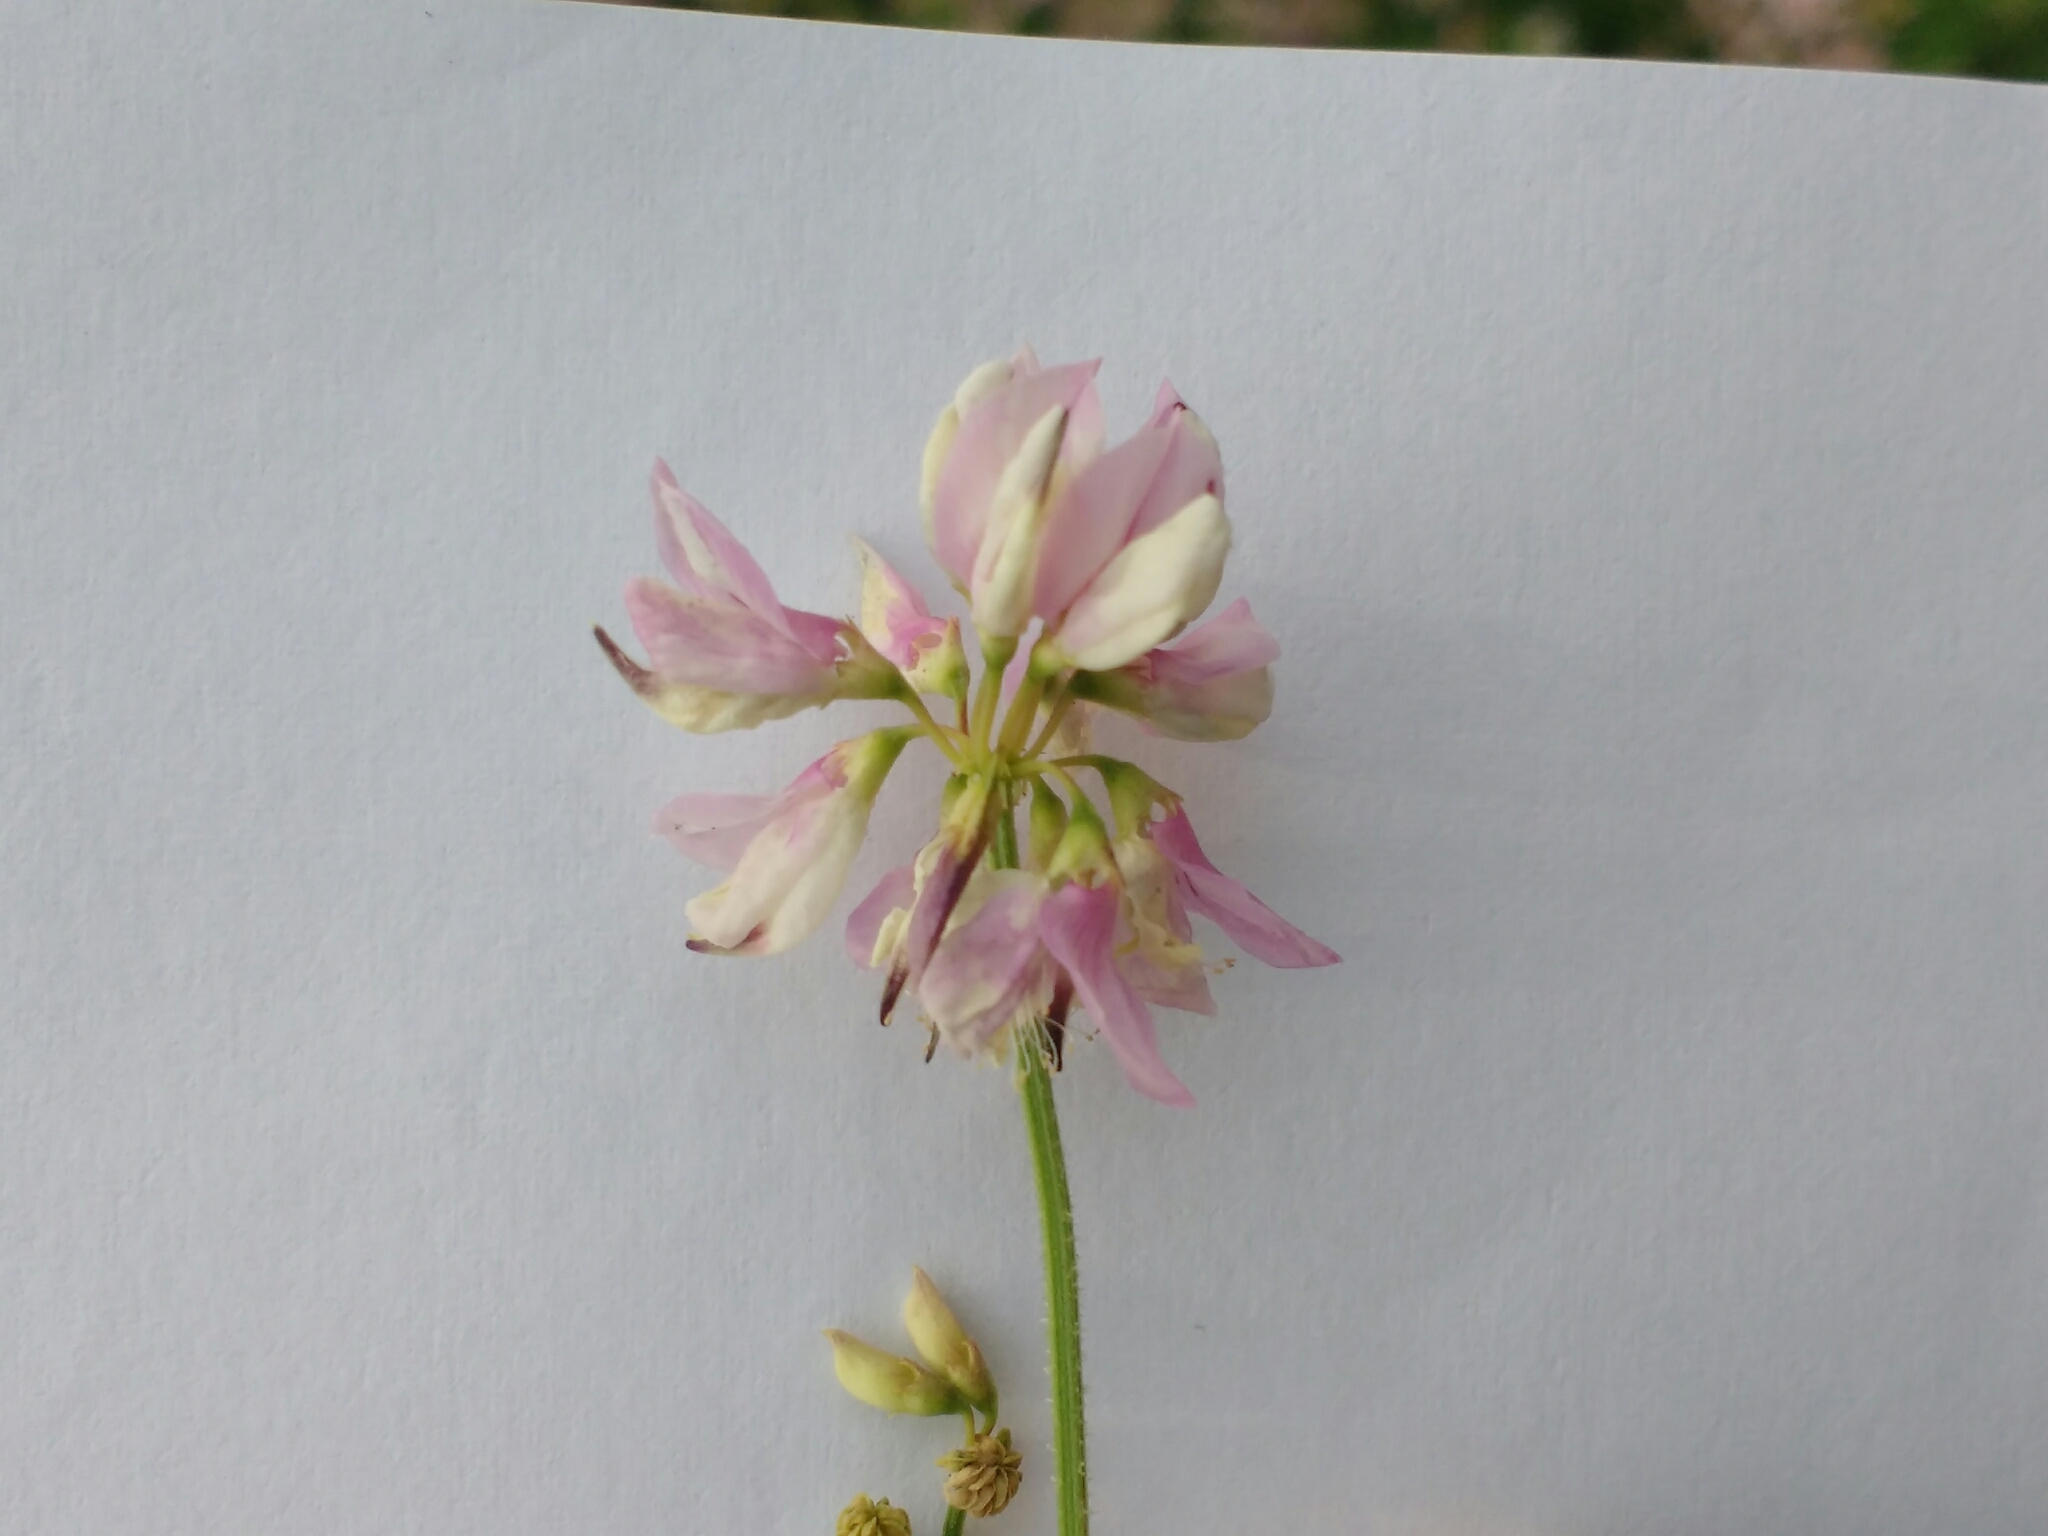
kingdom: Plantae
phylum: Tracheophyta
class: Magnoliopsida
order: Fabales
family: Fabaceae
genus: Coronilla
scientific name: Coronilla varia
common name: Crownvetch
